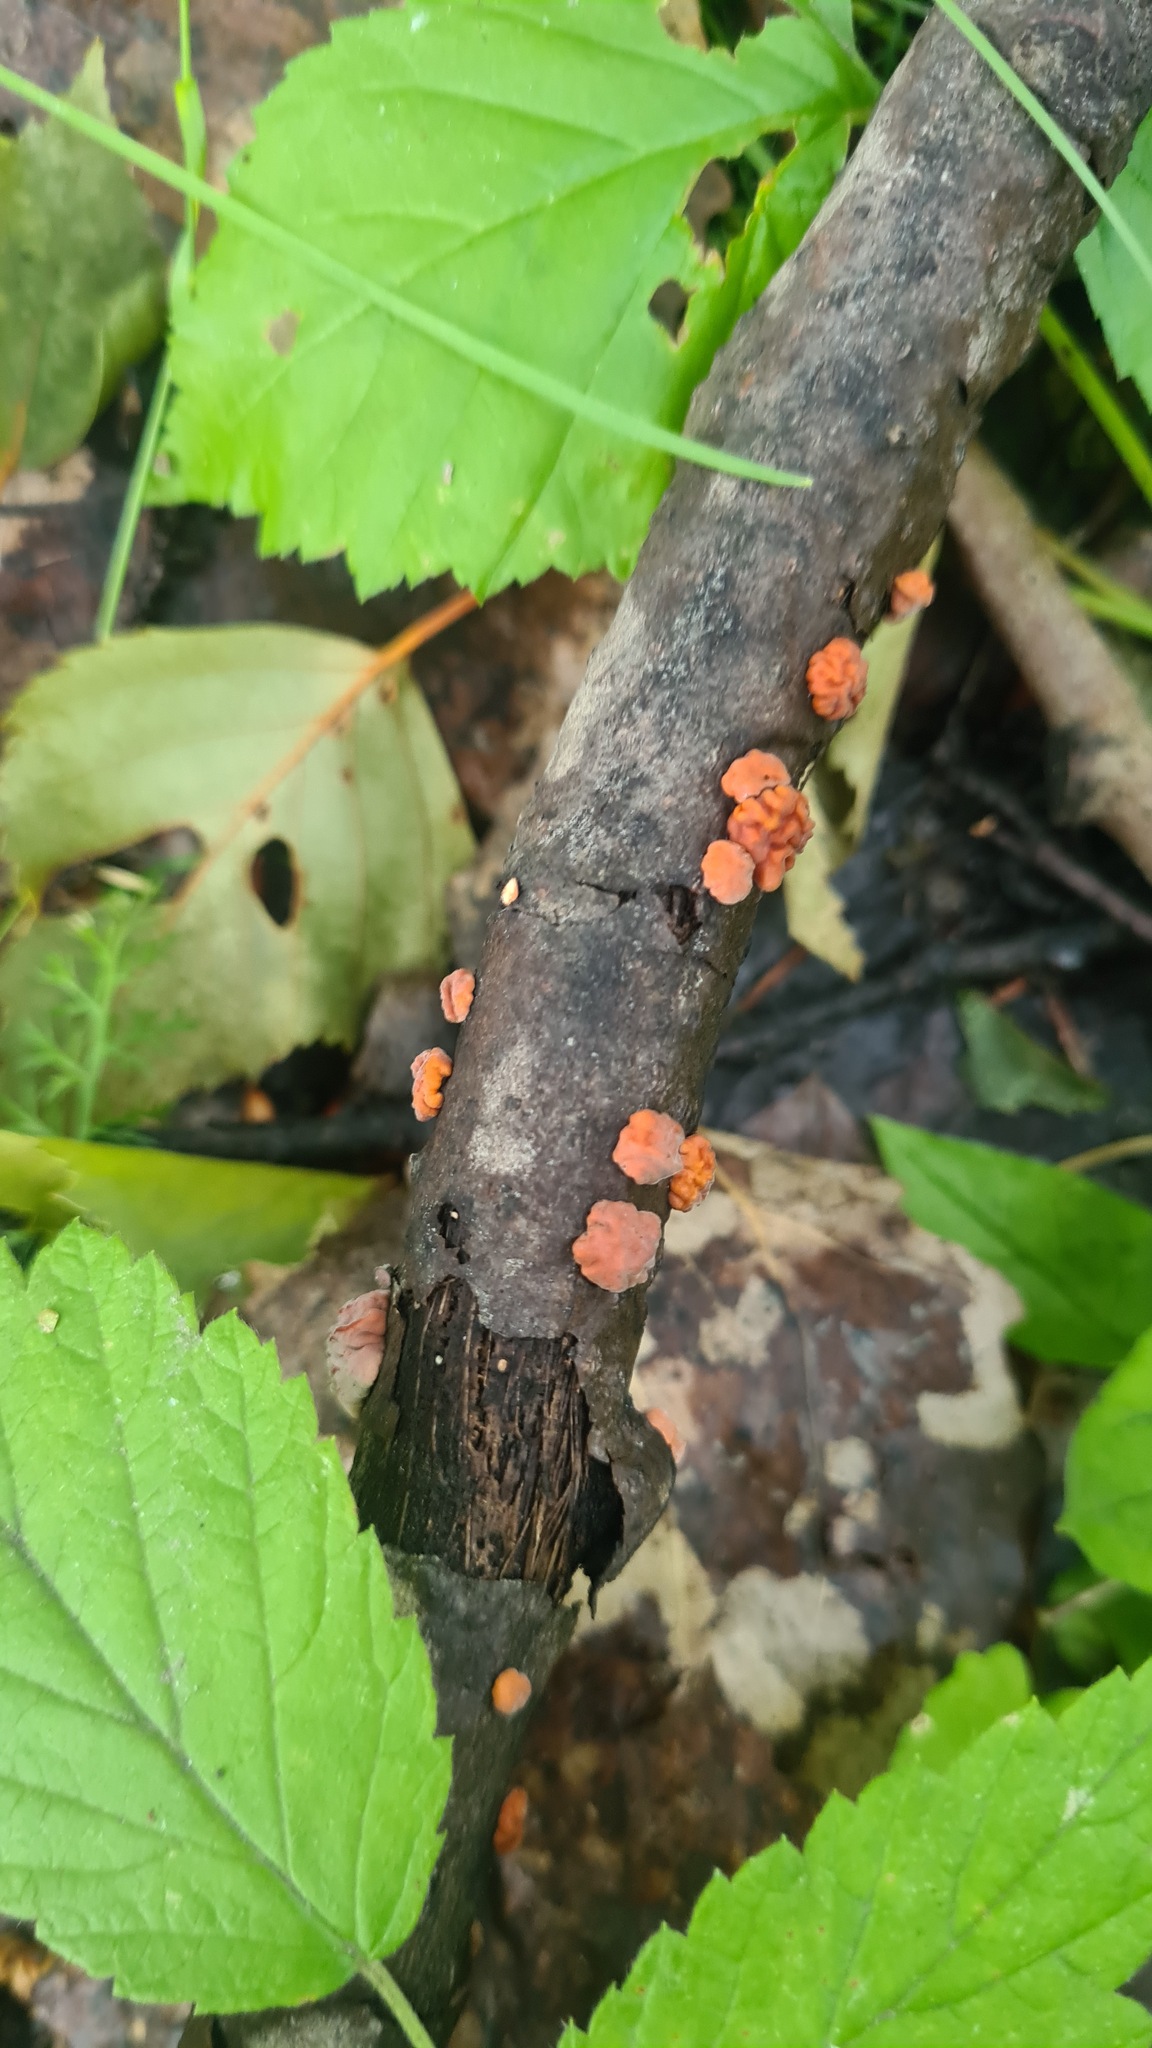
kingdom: Fungi
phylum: Basidiomycota
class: Agaricomycetes
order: Russulales
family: Peniophoraceae
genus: Peniophora
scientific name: Peniophora rufa
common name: Red tree brain fungus
